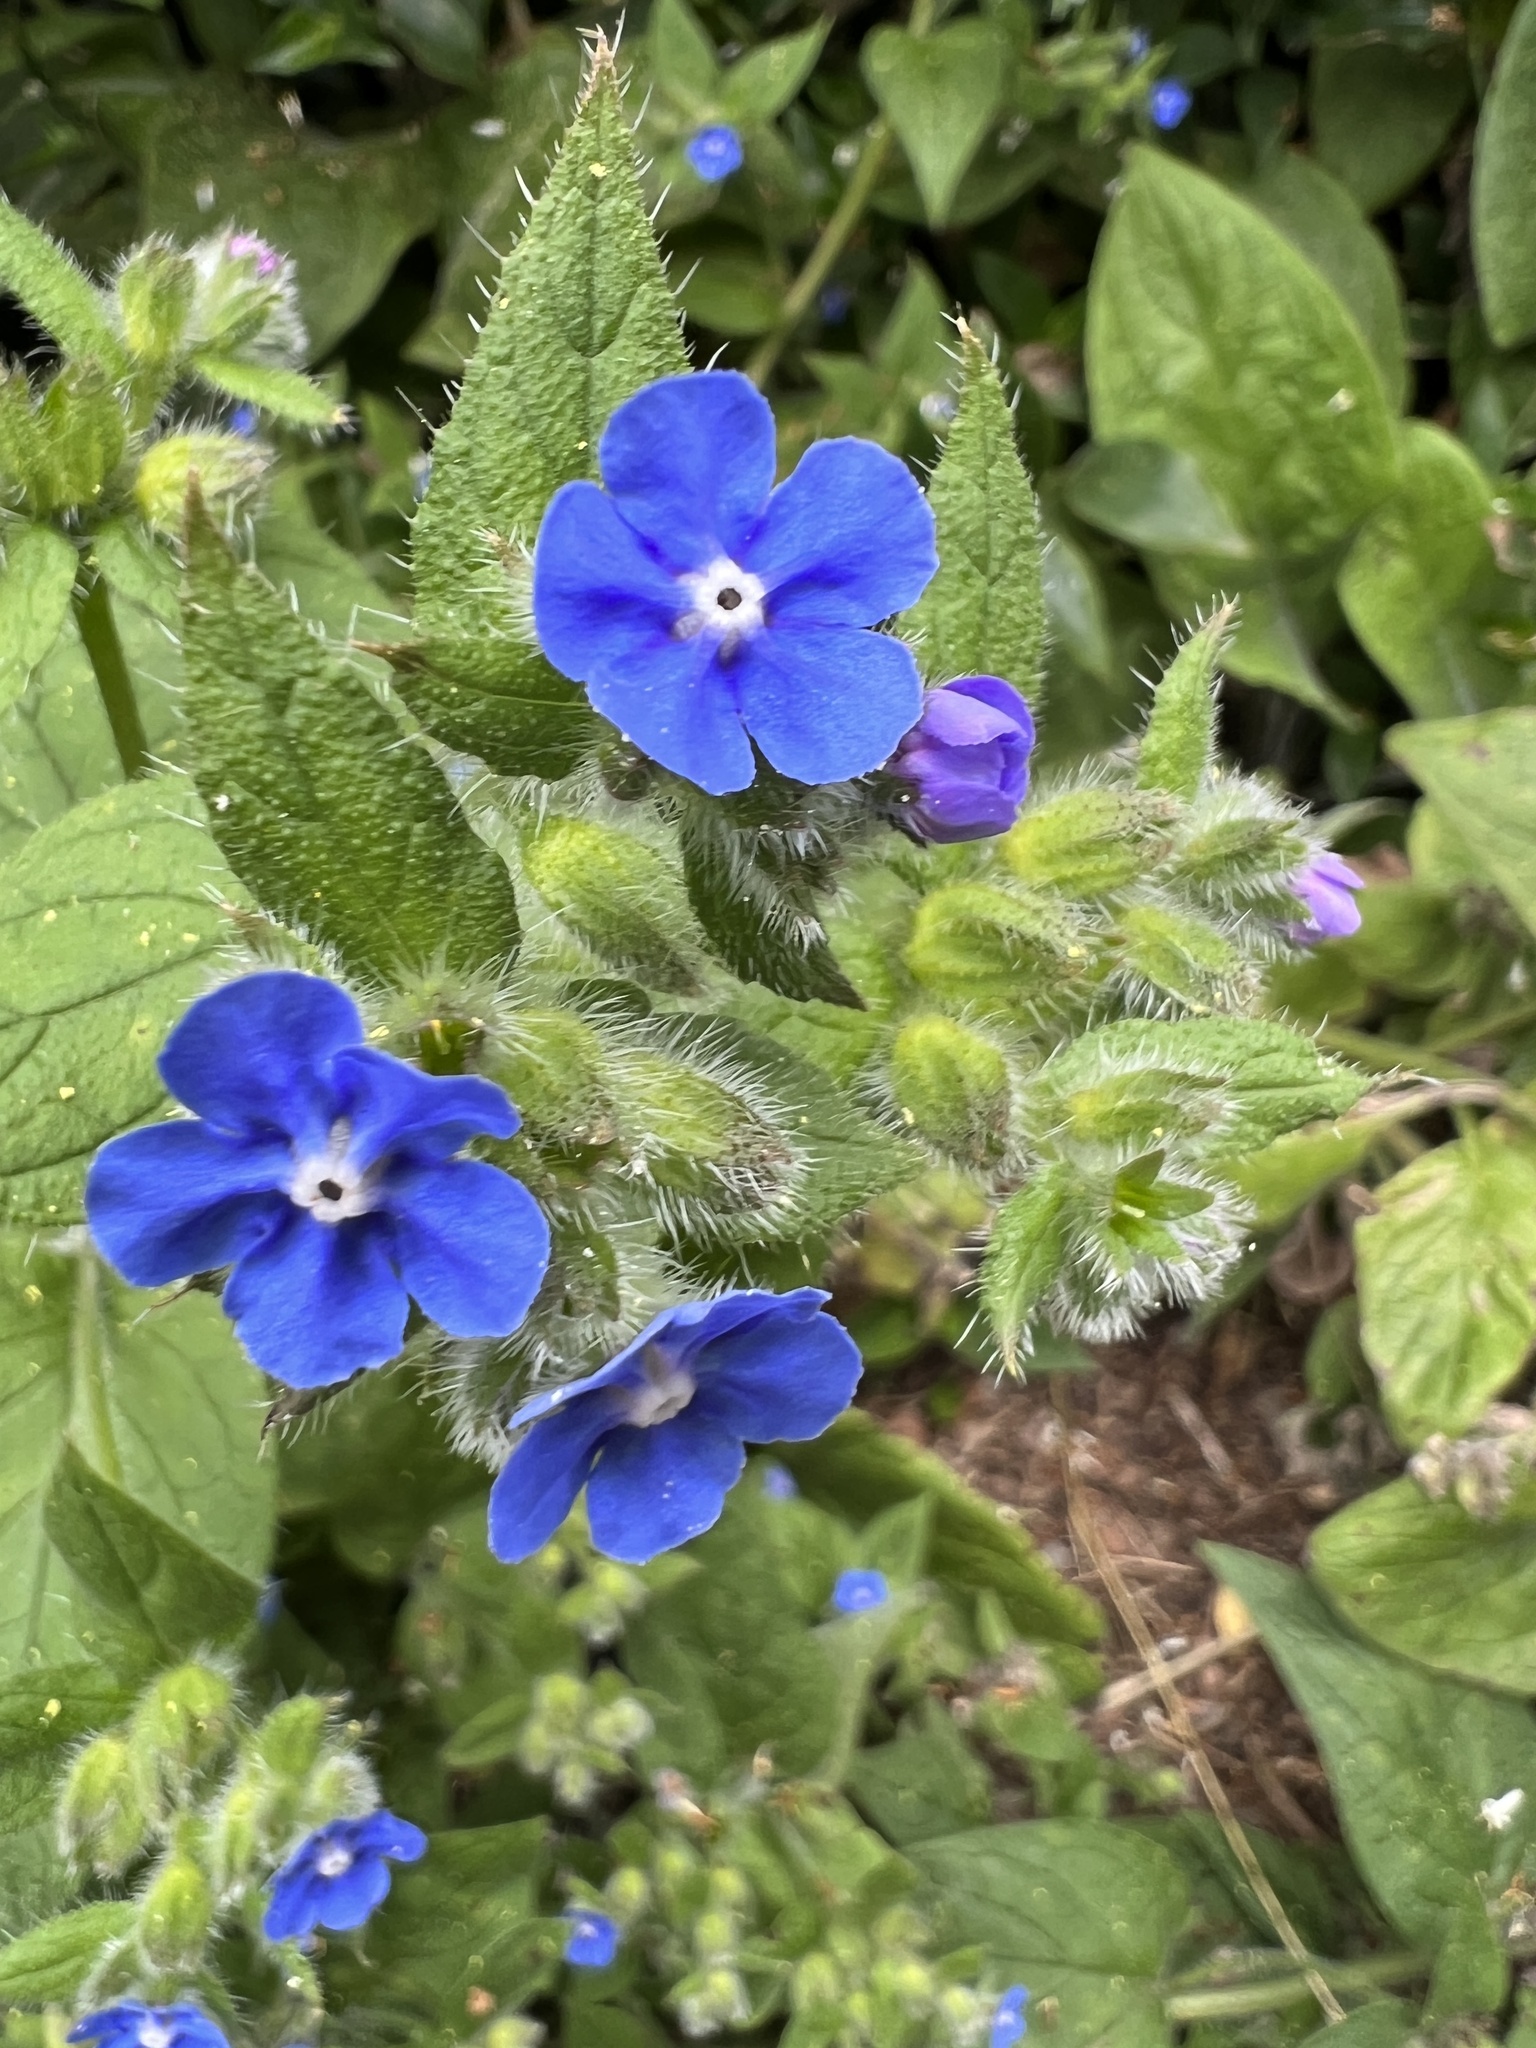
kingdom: Plantae
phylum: Tracheophyta
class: Magnoliopsida
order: Boraginales
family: Boraginaceae
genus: Pentaglottis
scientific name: Pentaglottis sempervirens
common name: Green alkanet
